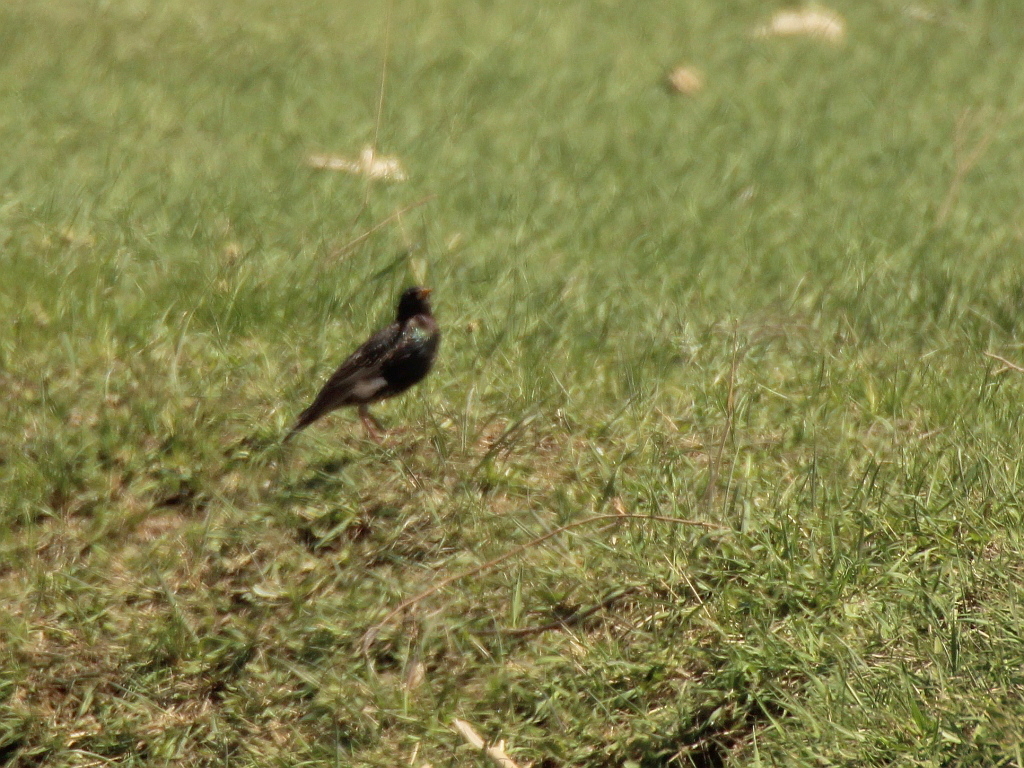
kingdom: Animalia
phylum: Chordata
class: Aves
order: Passeriformes
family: Sturnidae
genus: Sturnus
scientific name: Sturnus vulgaris
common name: Common starling
